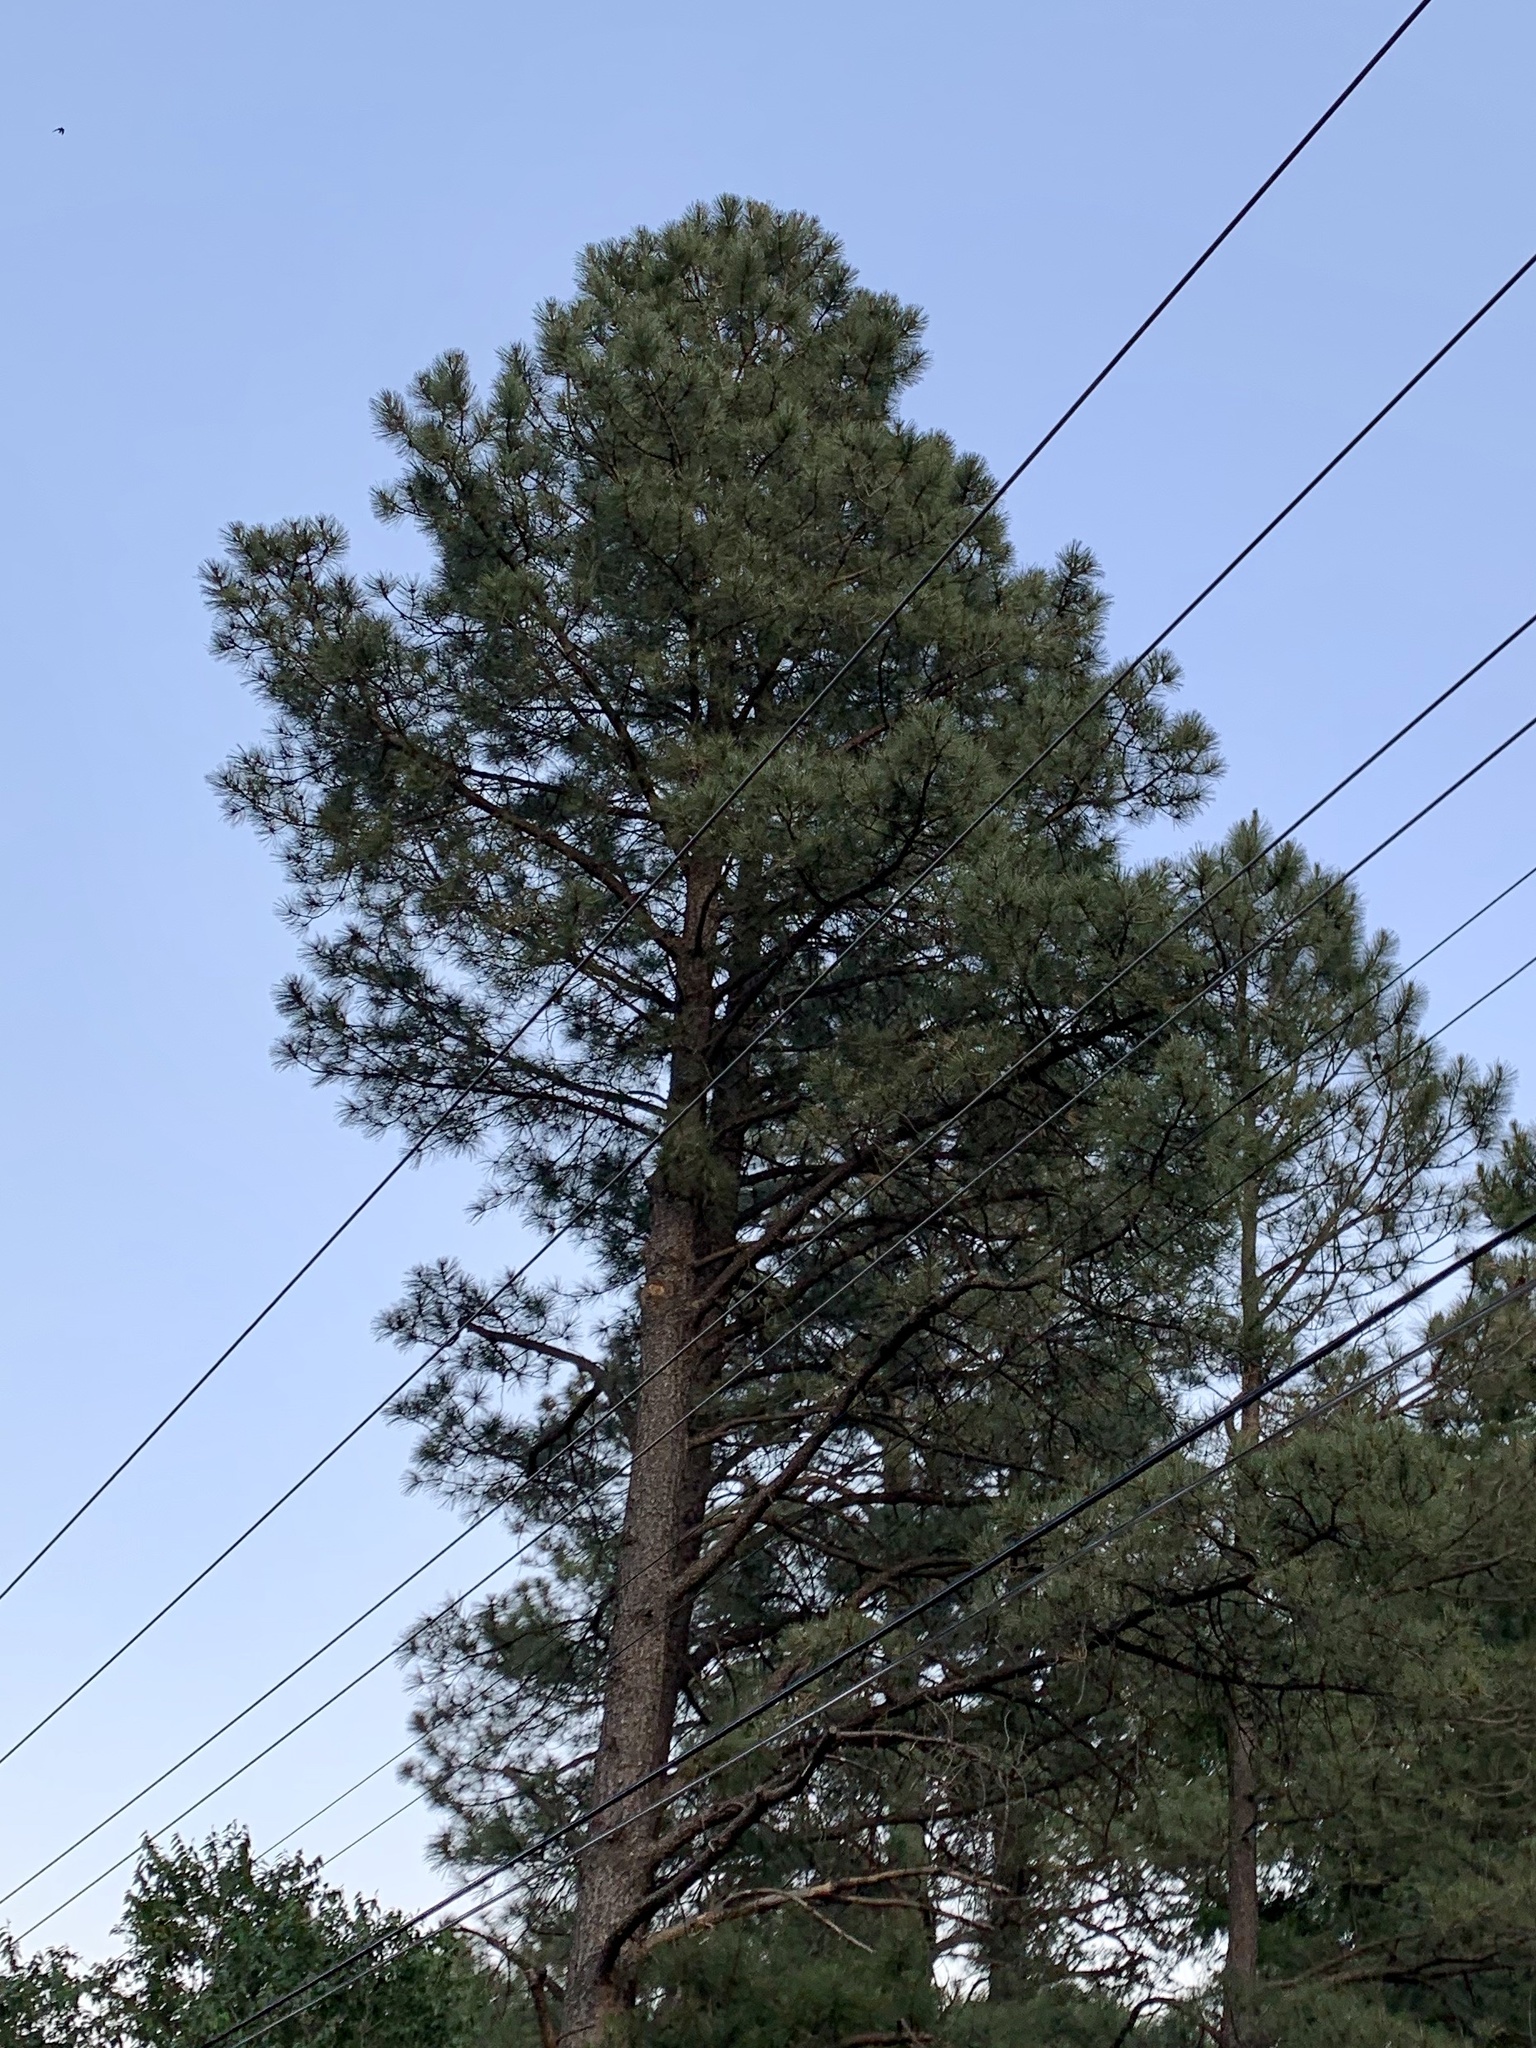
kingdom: Plantae
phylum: Tracheophyta
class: Pinopsida
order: Pinales
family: Pinaceae
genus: Pinus
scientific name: Pinus ponderosa
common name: Western yellow-pine
